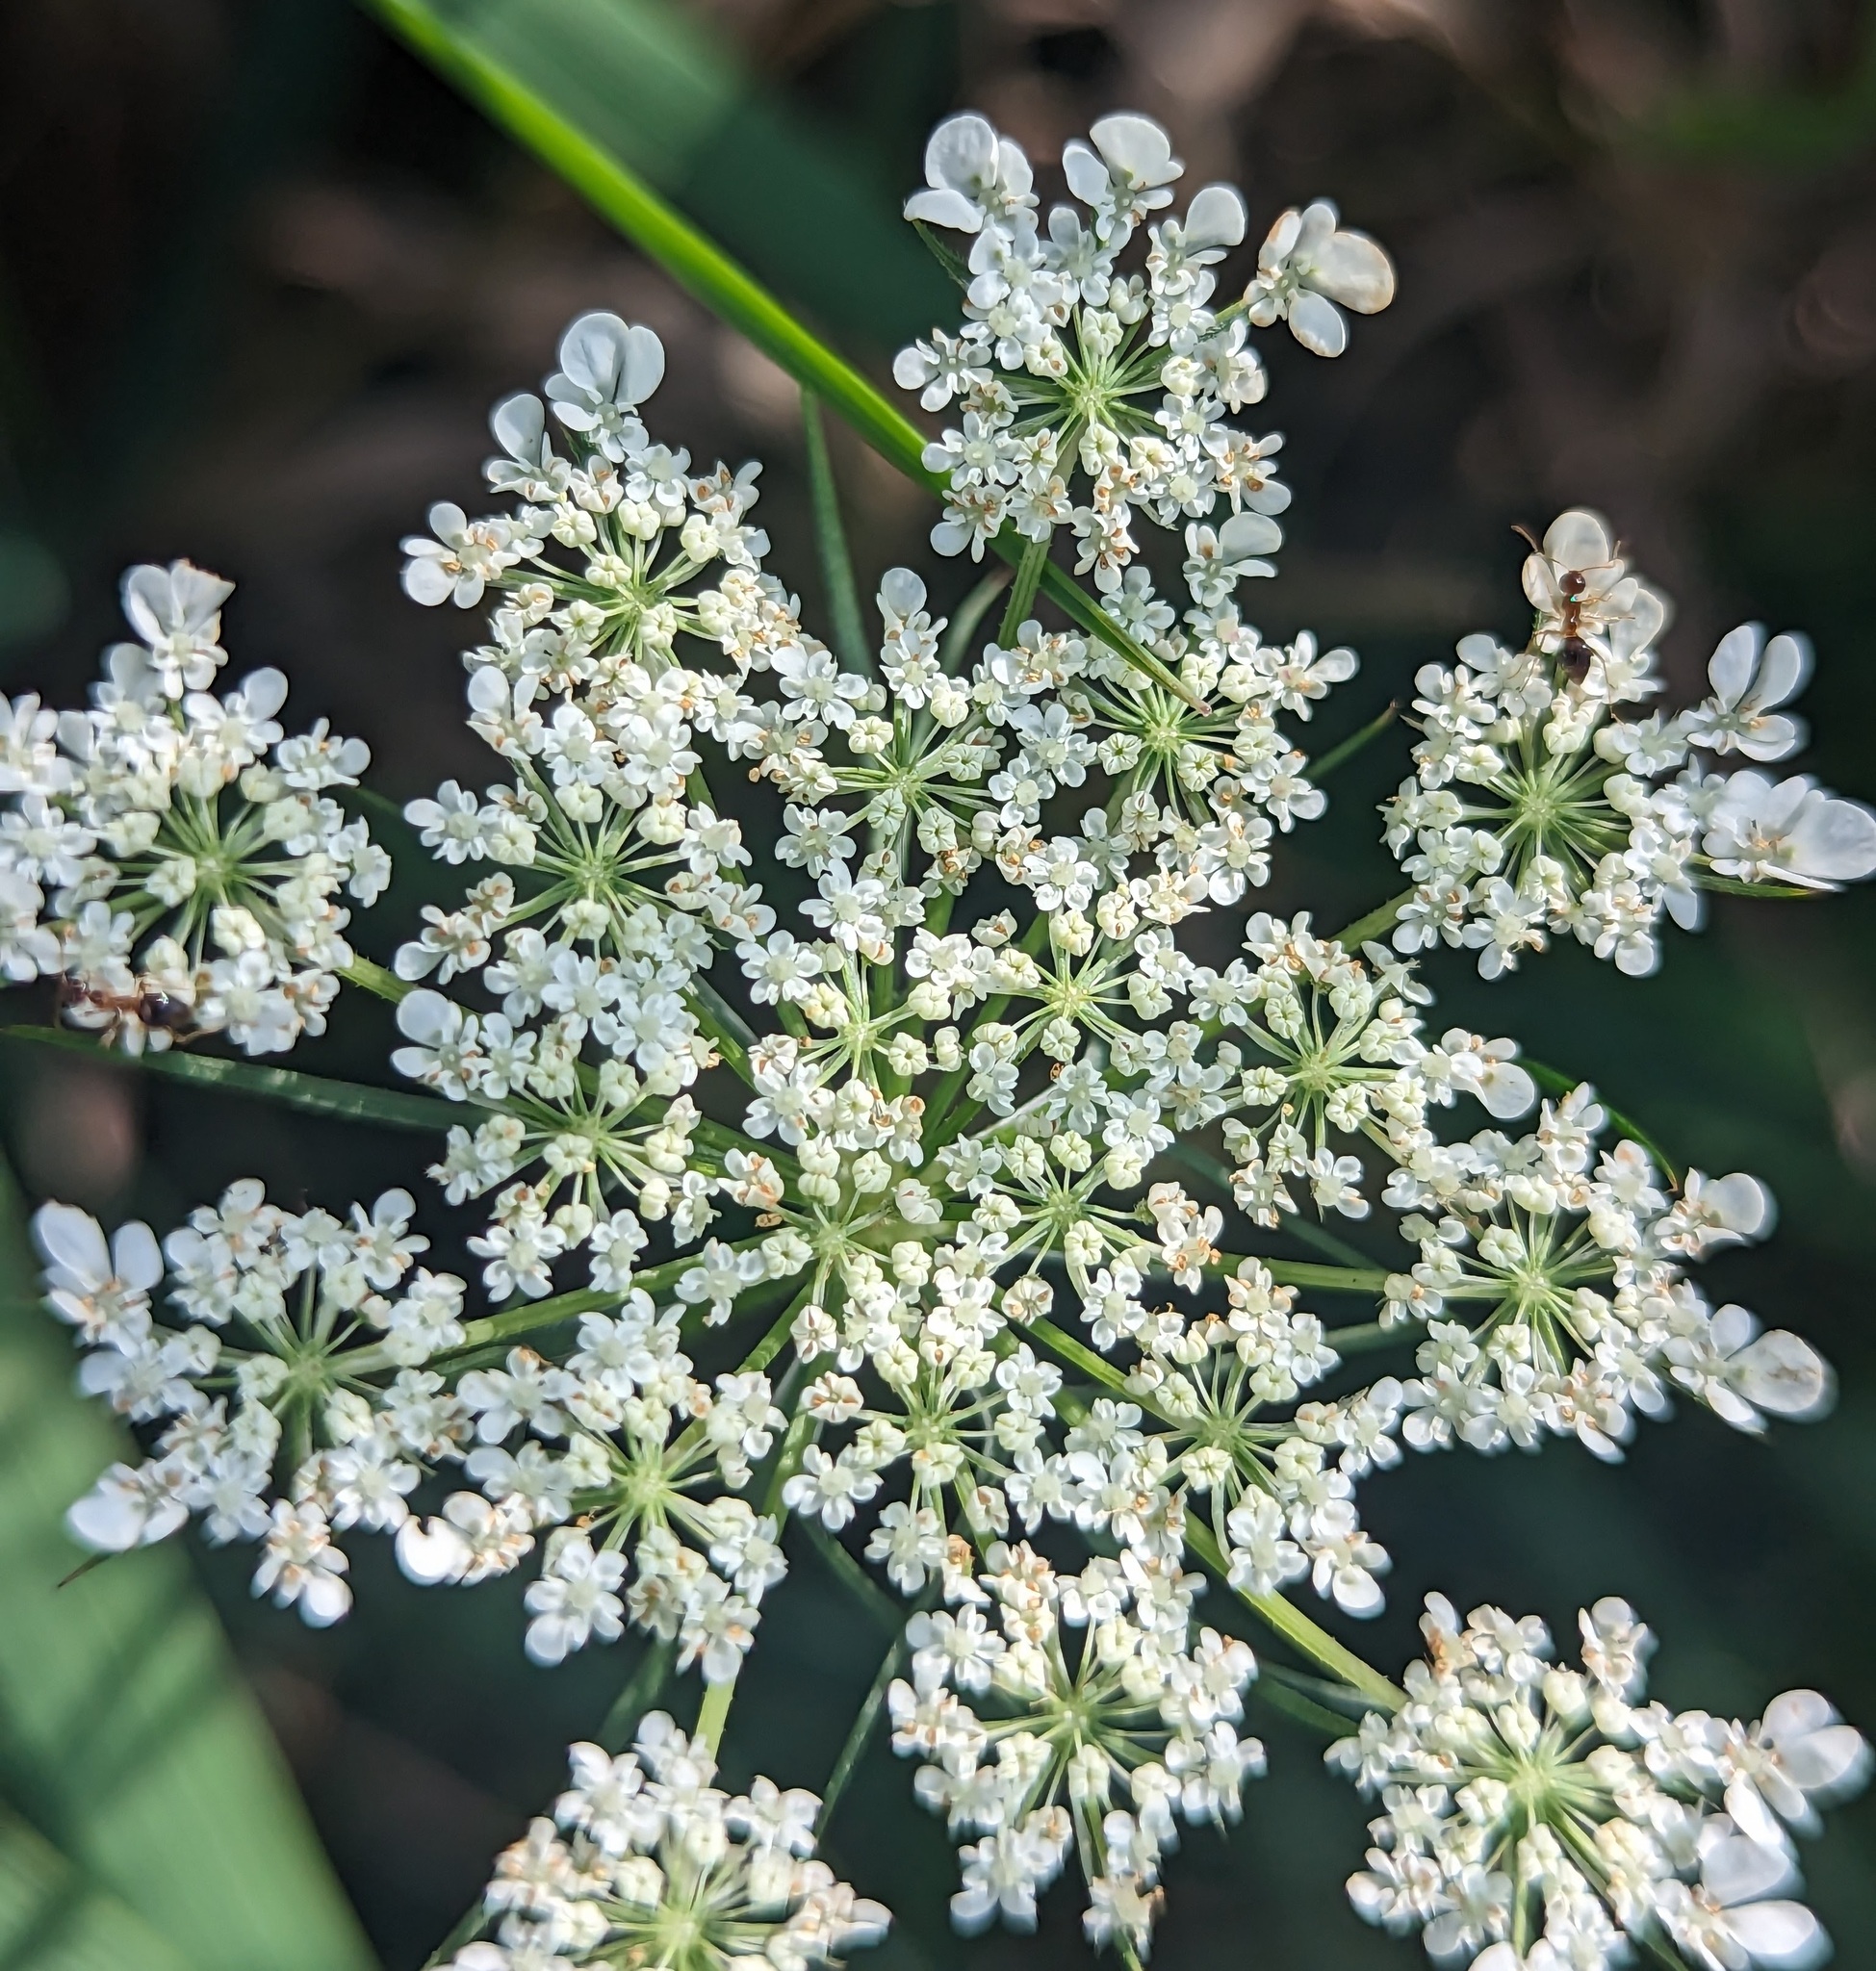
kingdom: Plantae
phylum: Tracheophyta
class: Magnoliopsida
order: Apiales
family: Apiaceae
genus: Daucus
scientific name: Daucus carota
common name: Wild carrot
